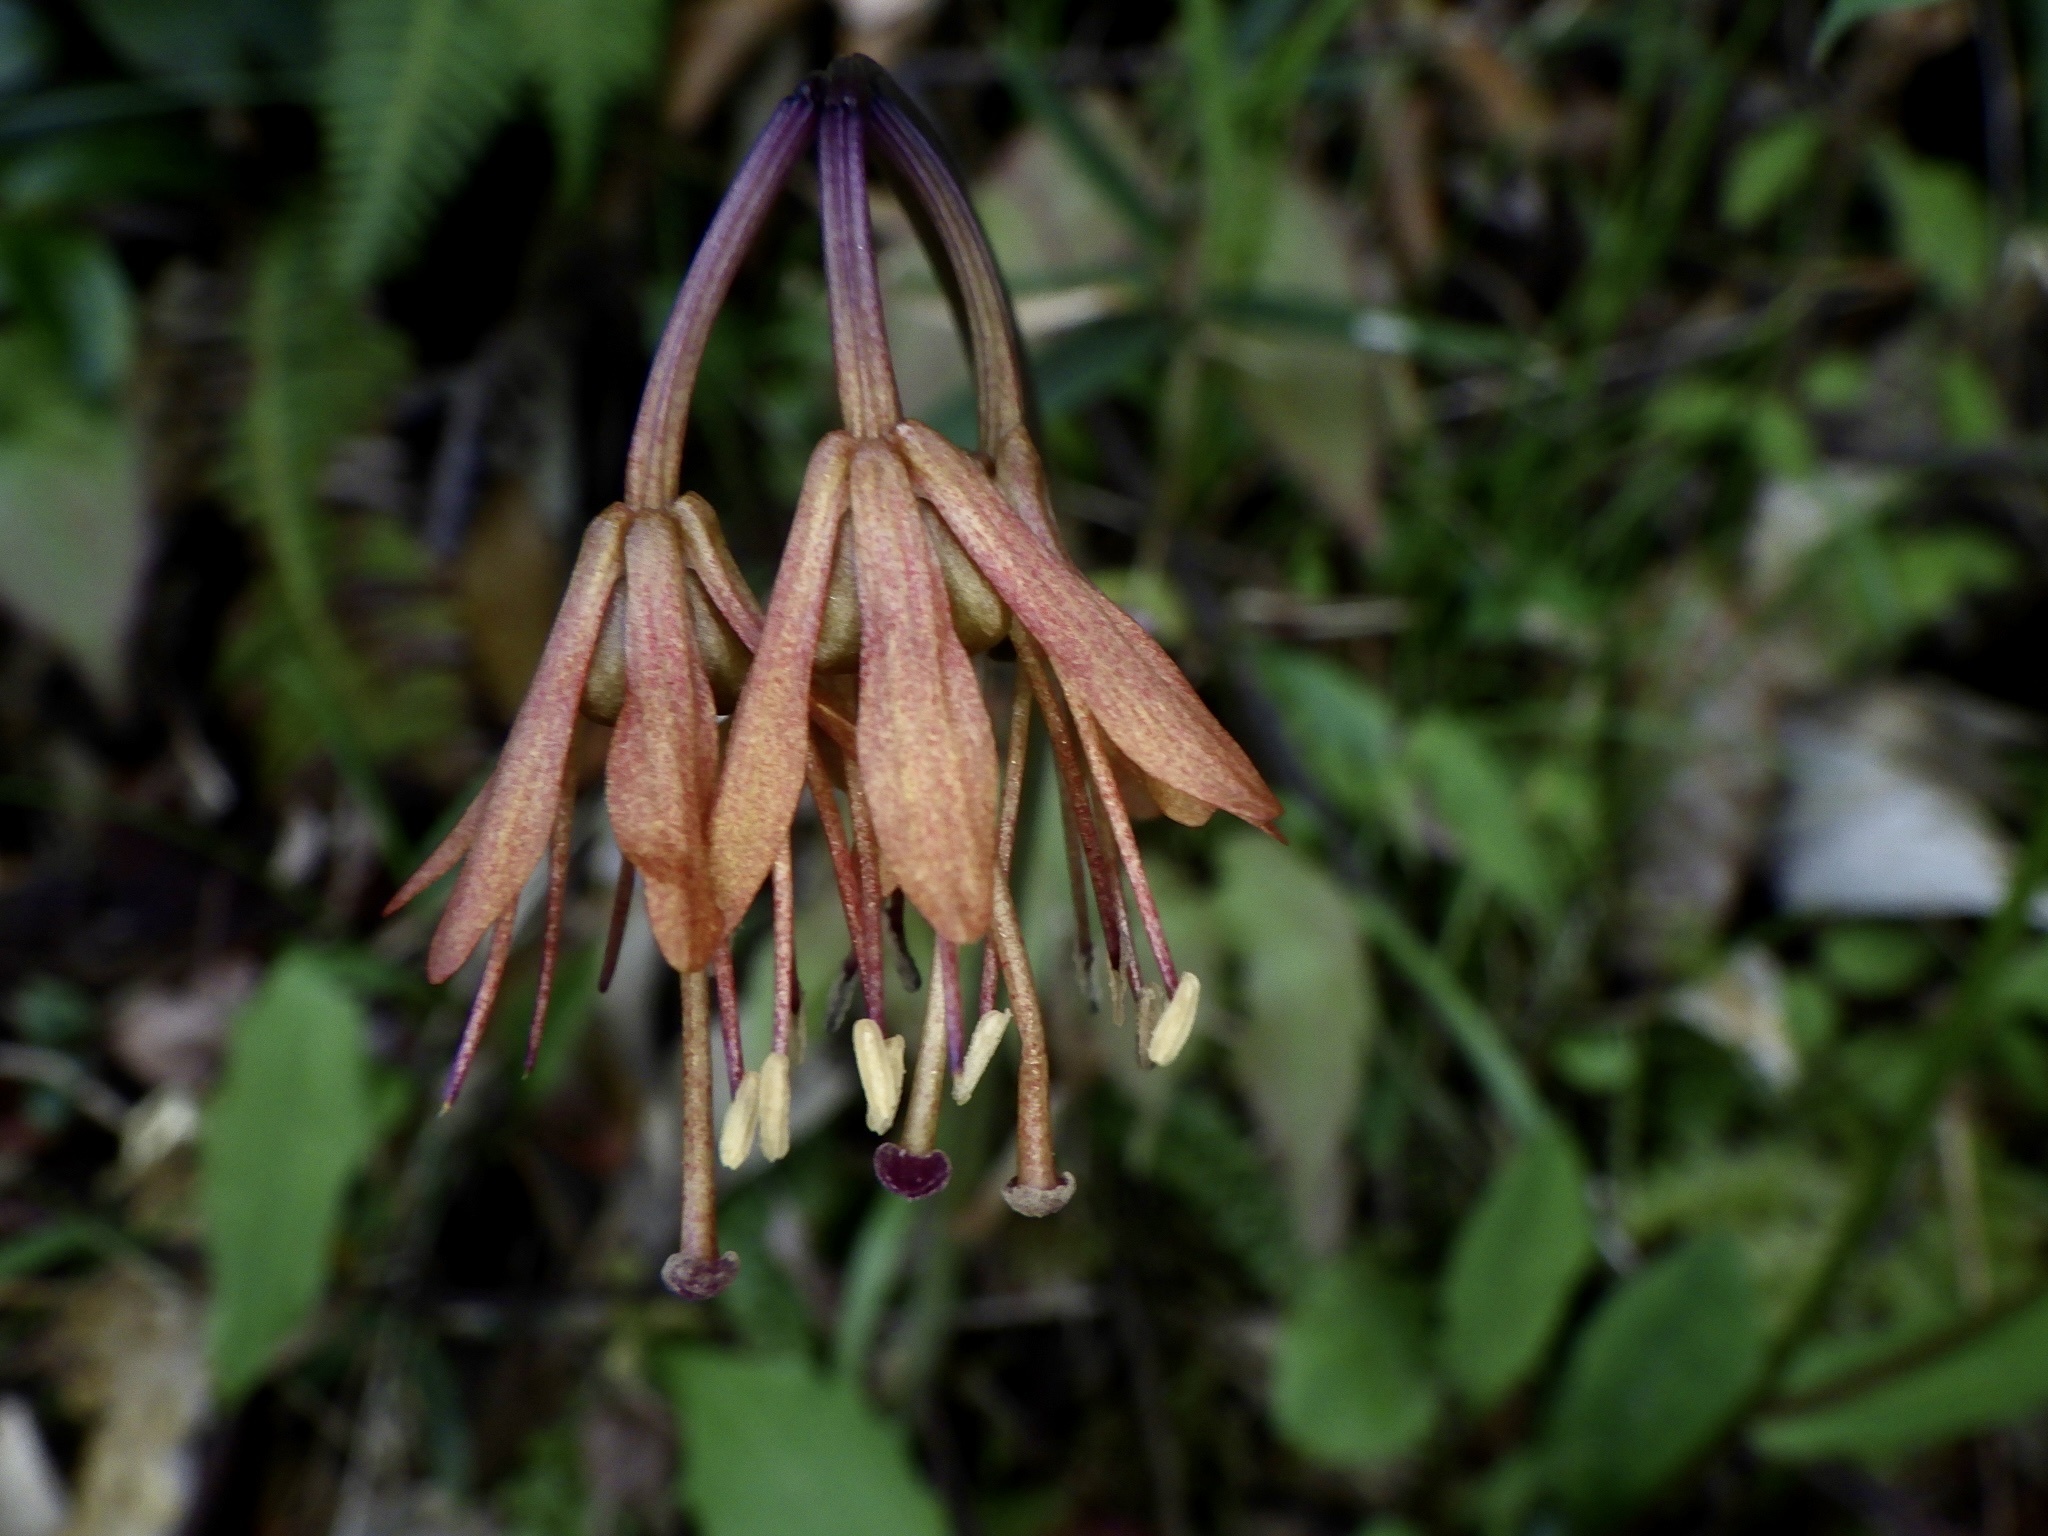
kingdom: Plantae
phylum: Tracheophyta
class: Liliopsida
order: Liliales
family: Melanthiaceae
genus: Helonias
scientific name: Helonias orientalis
